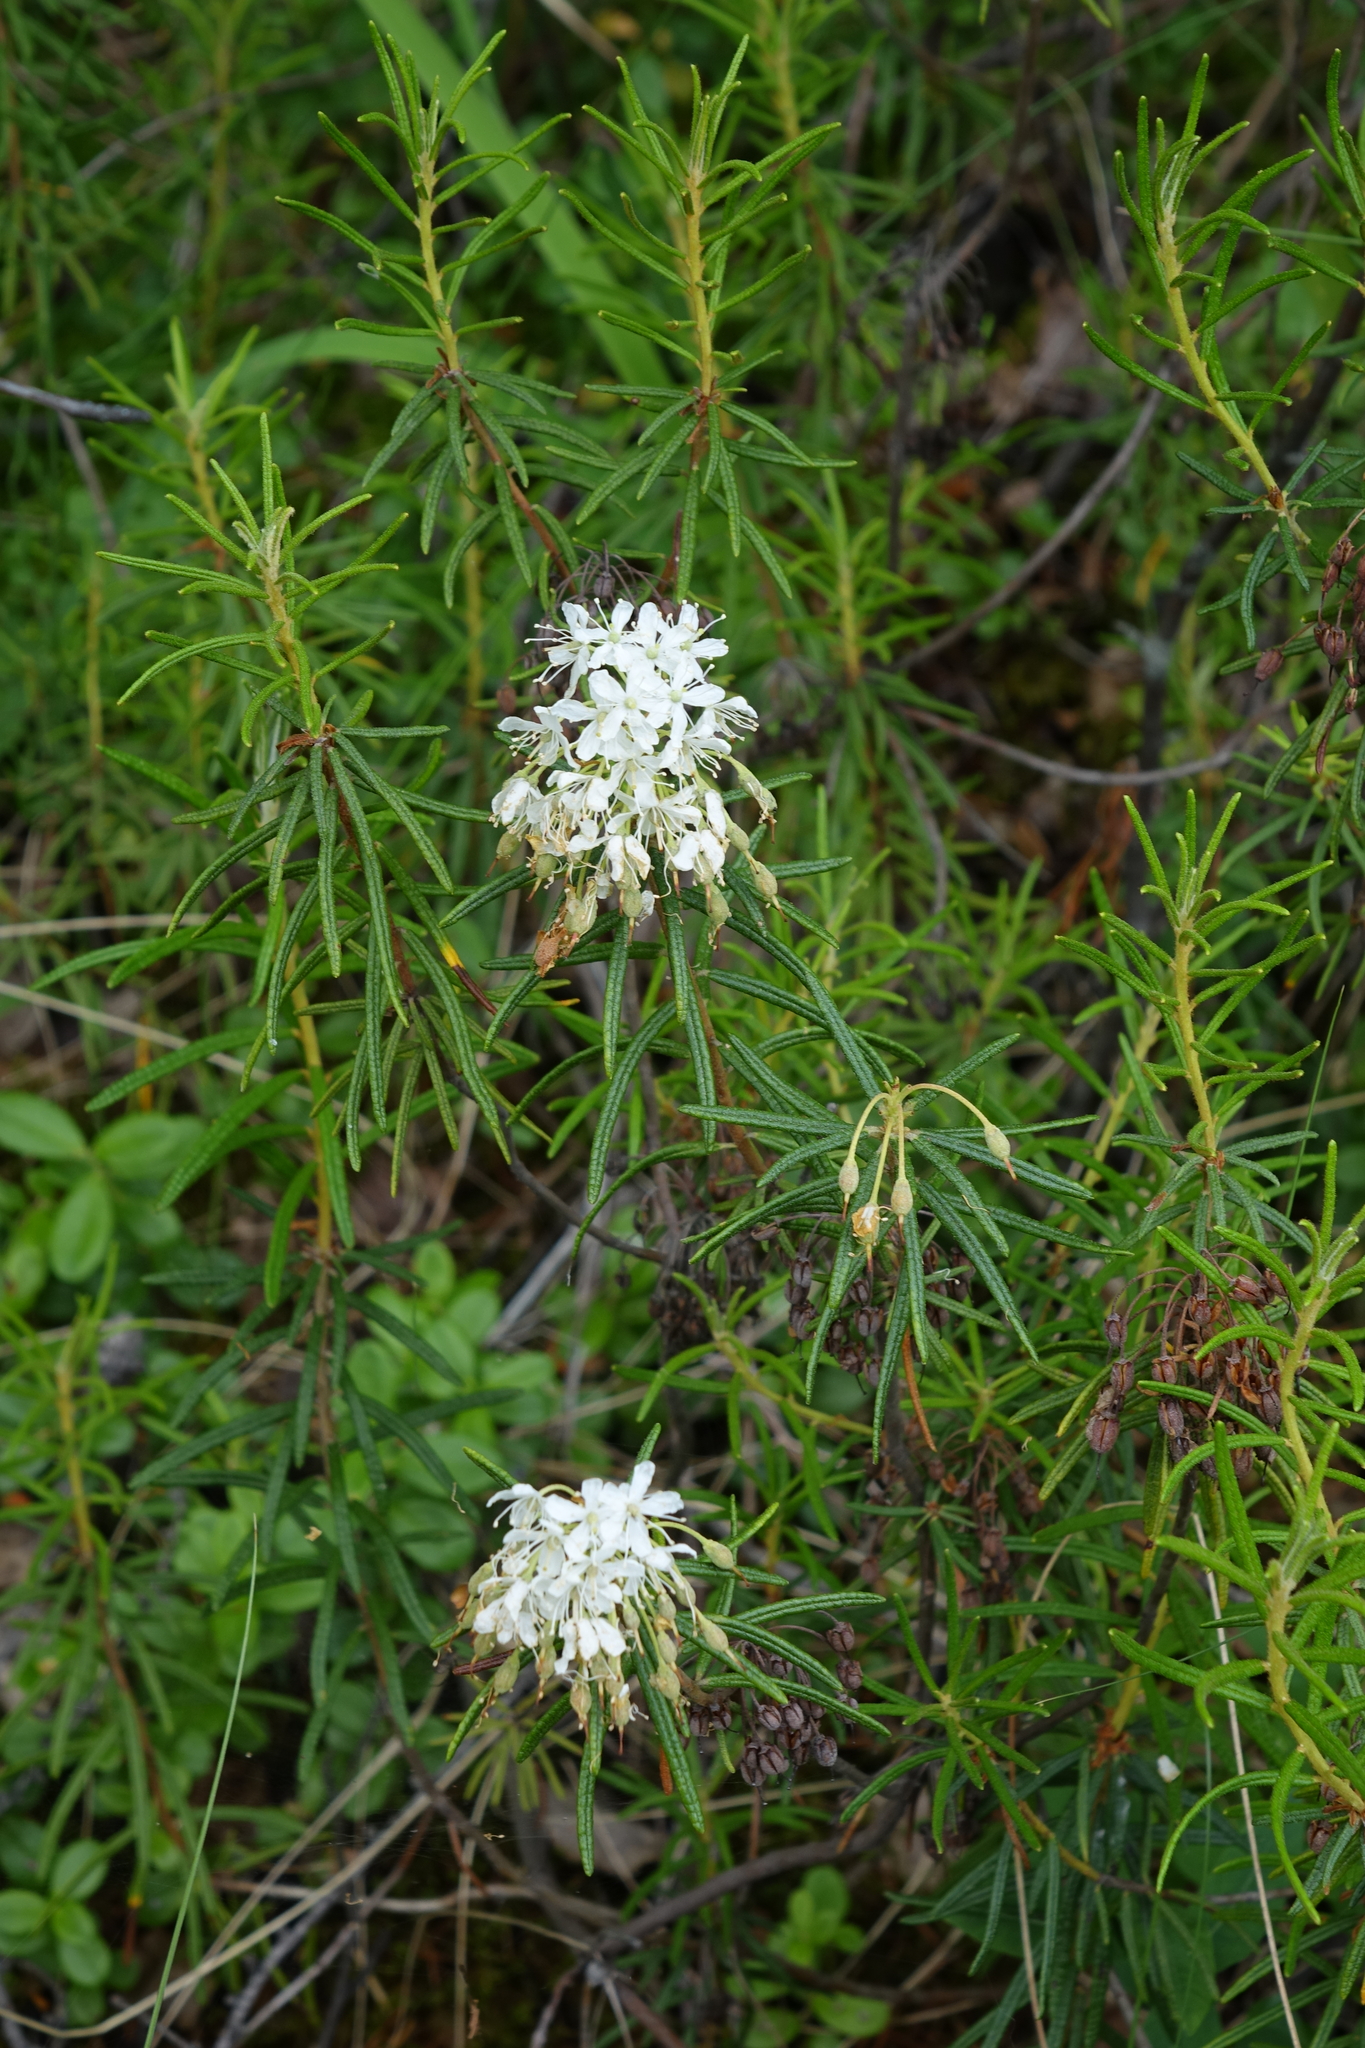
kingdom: Plantae
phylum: Tracheophyta
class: Magnoliopsida
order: Ericales
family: Ericaceae
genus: Rhododendron
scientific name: Rhododendron tomentosum
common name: Marsh labrador tea
